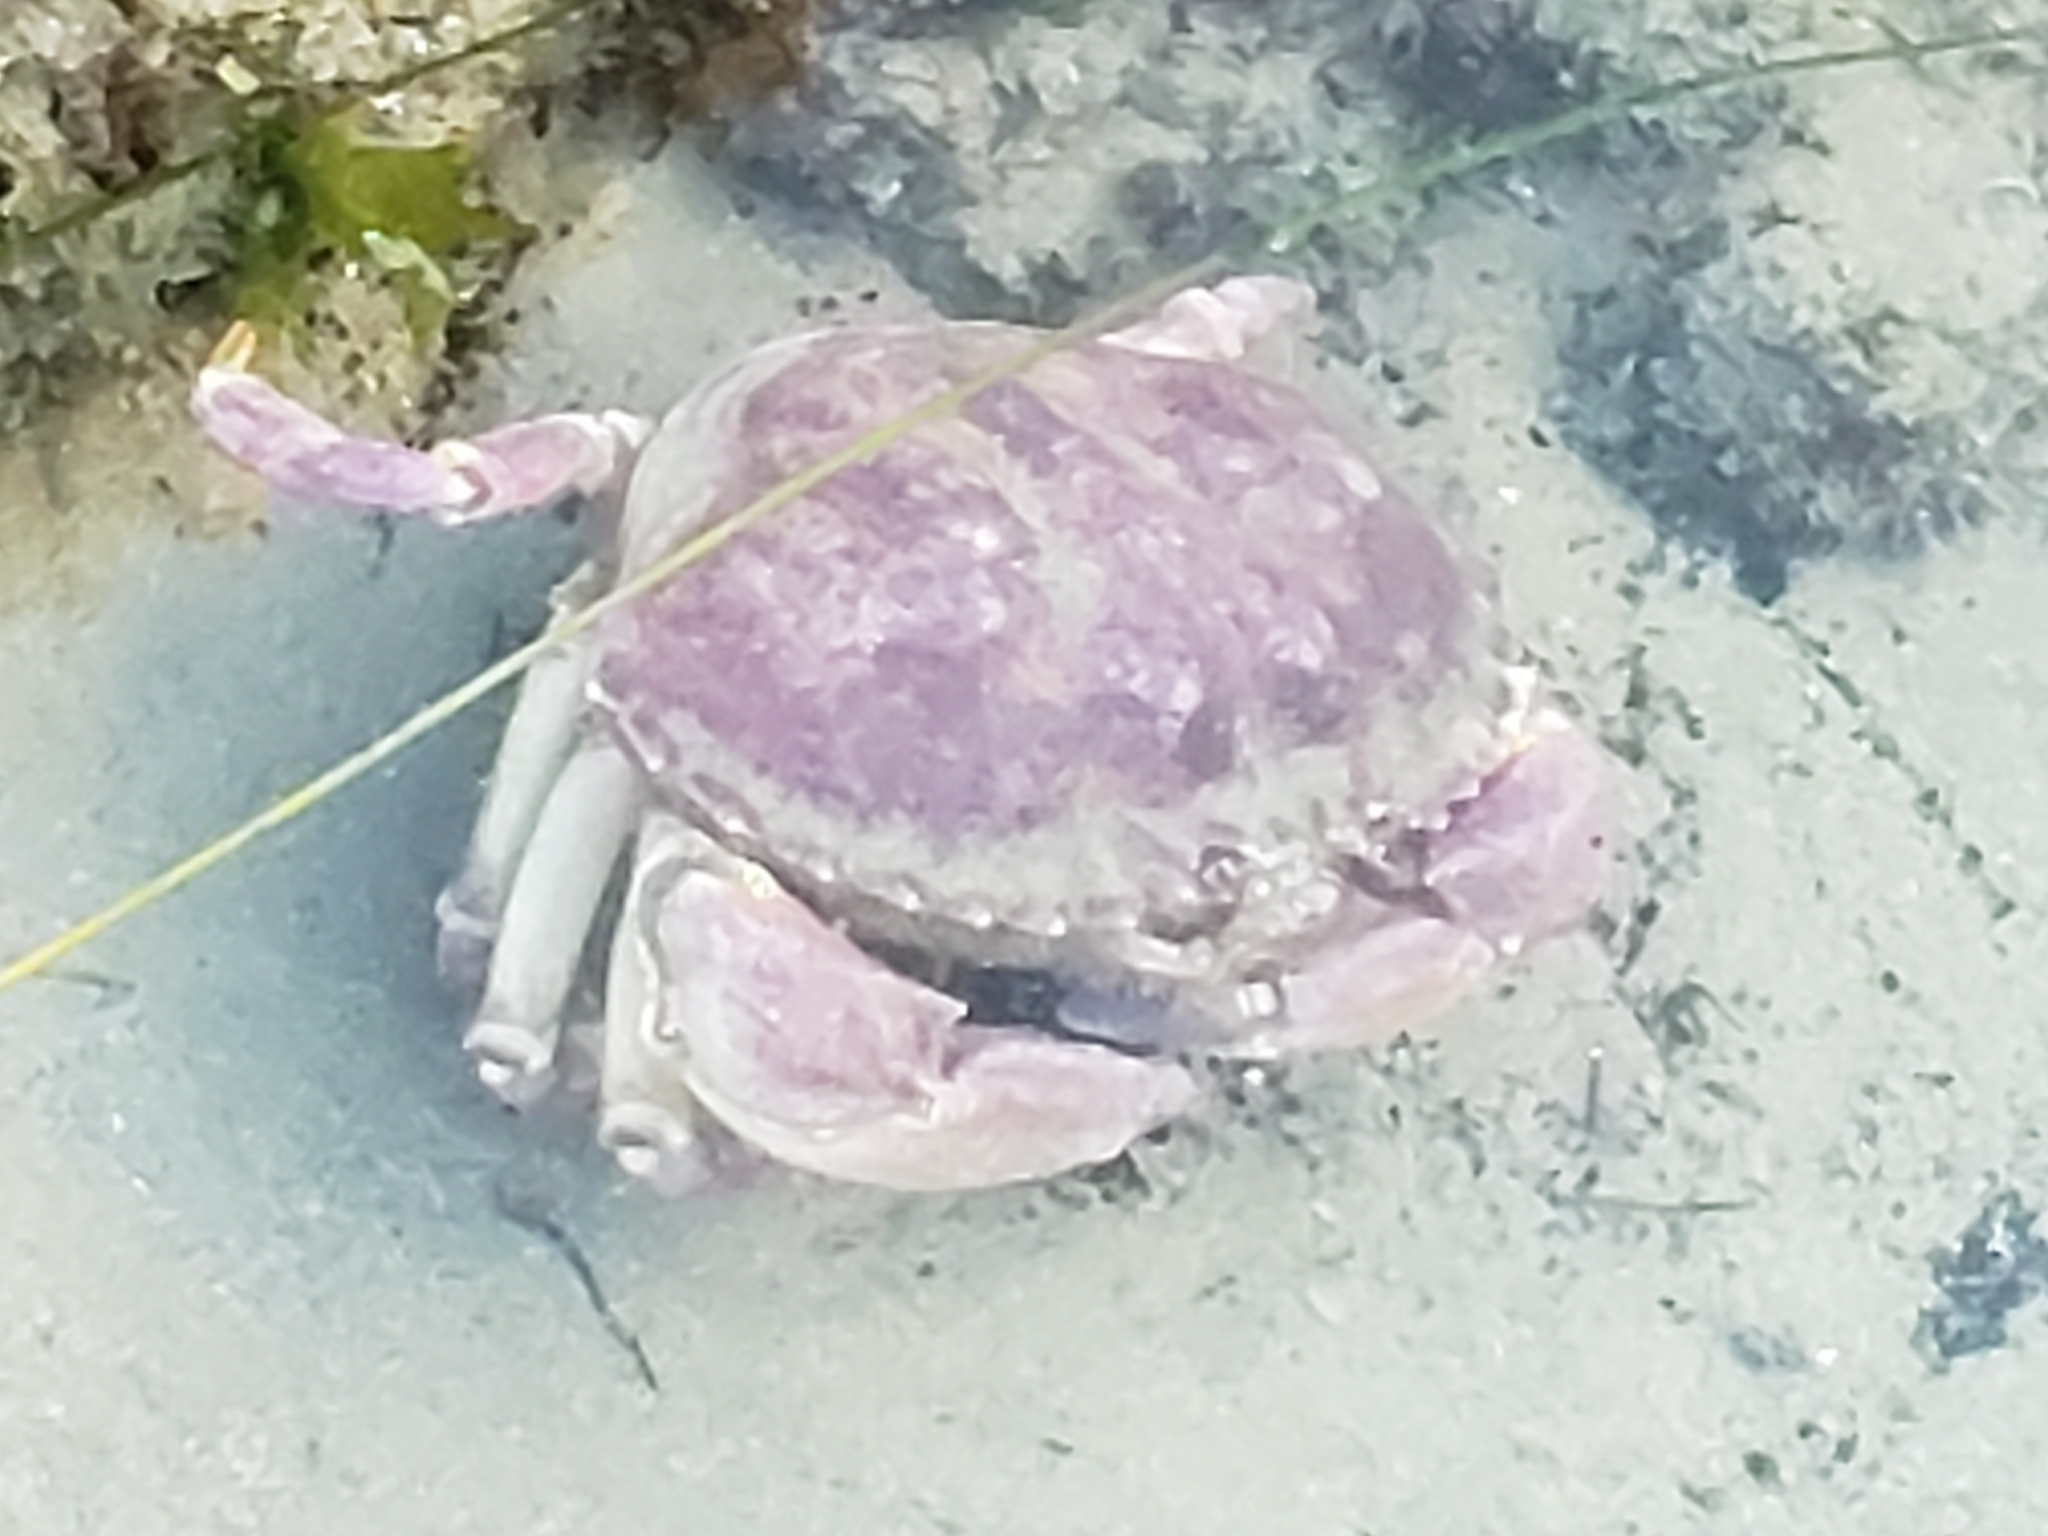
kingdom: Animalia
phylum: Arthropoda
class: Malacostraca
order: Decapoda
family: Cancridae
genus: Metacarcinus
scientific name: Metacarcinus anthonyi
